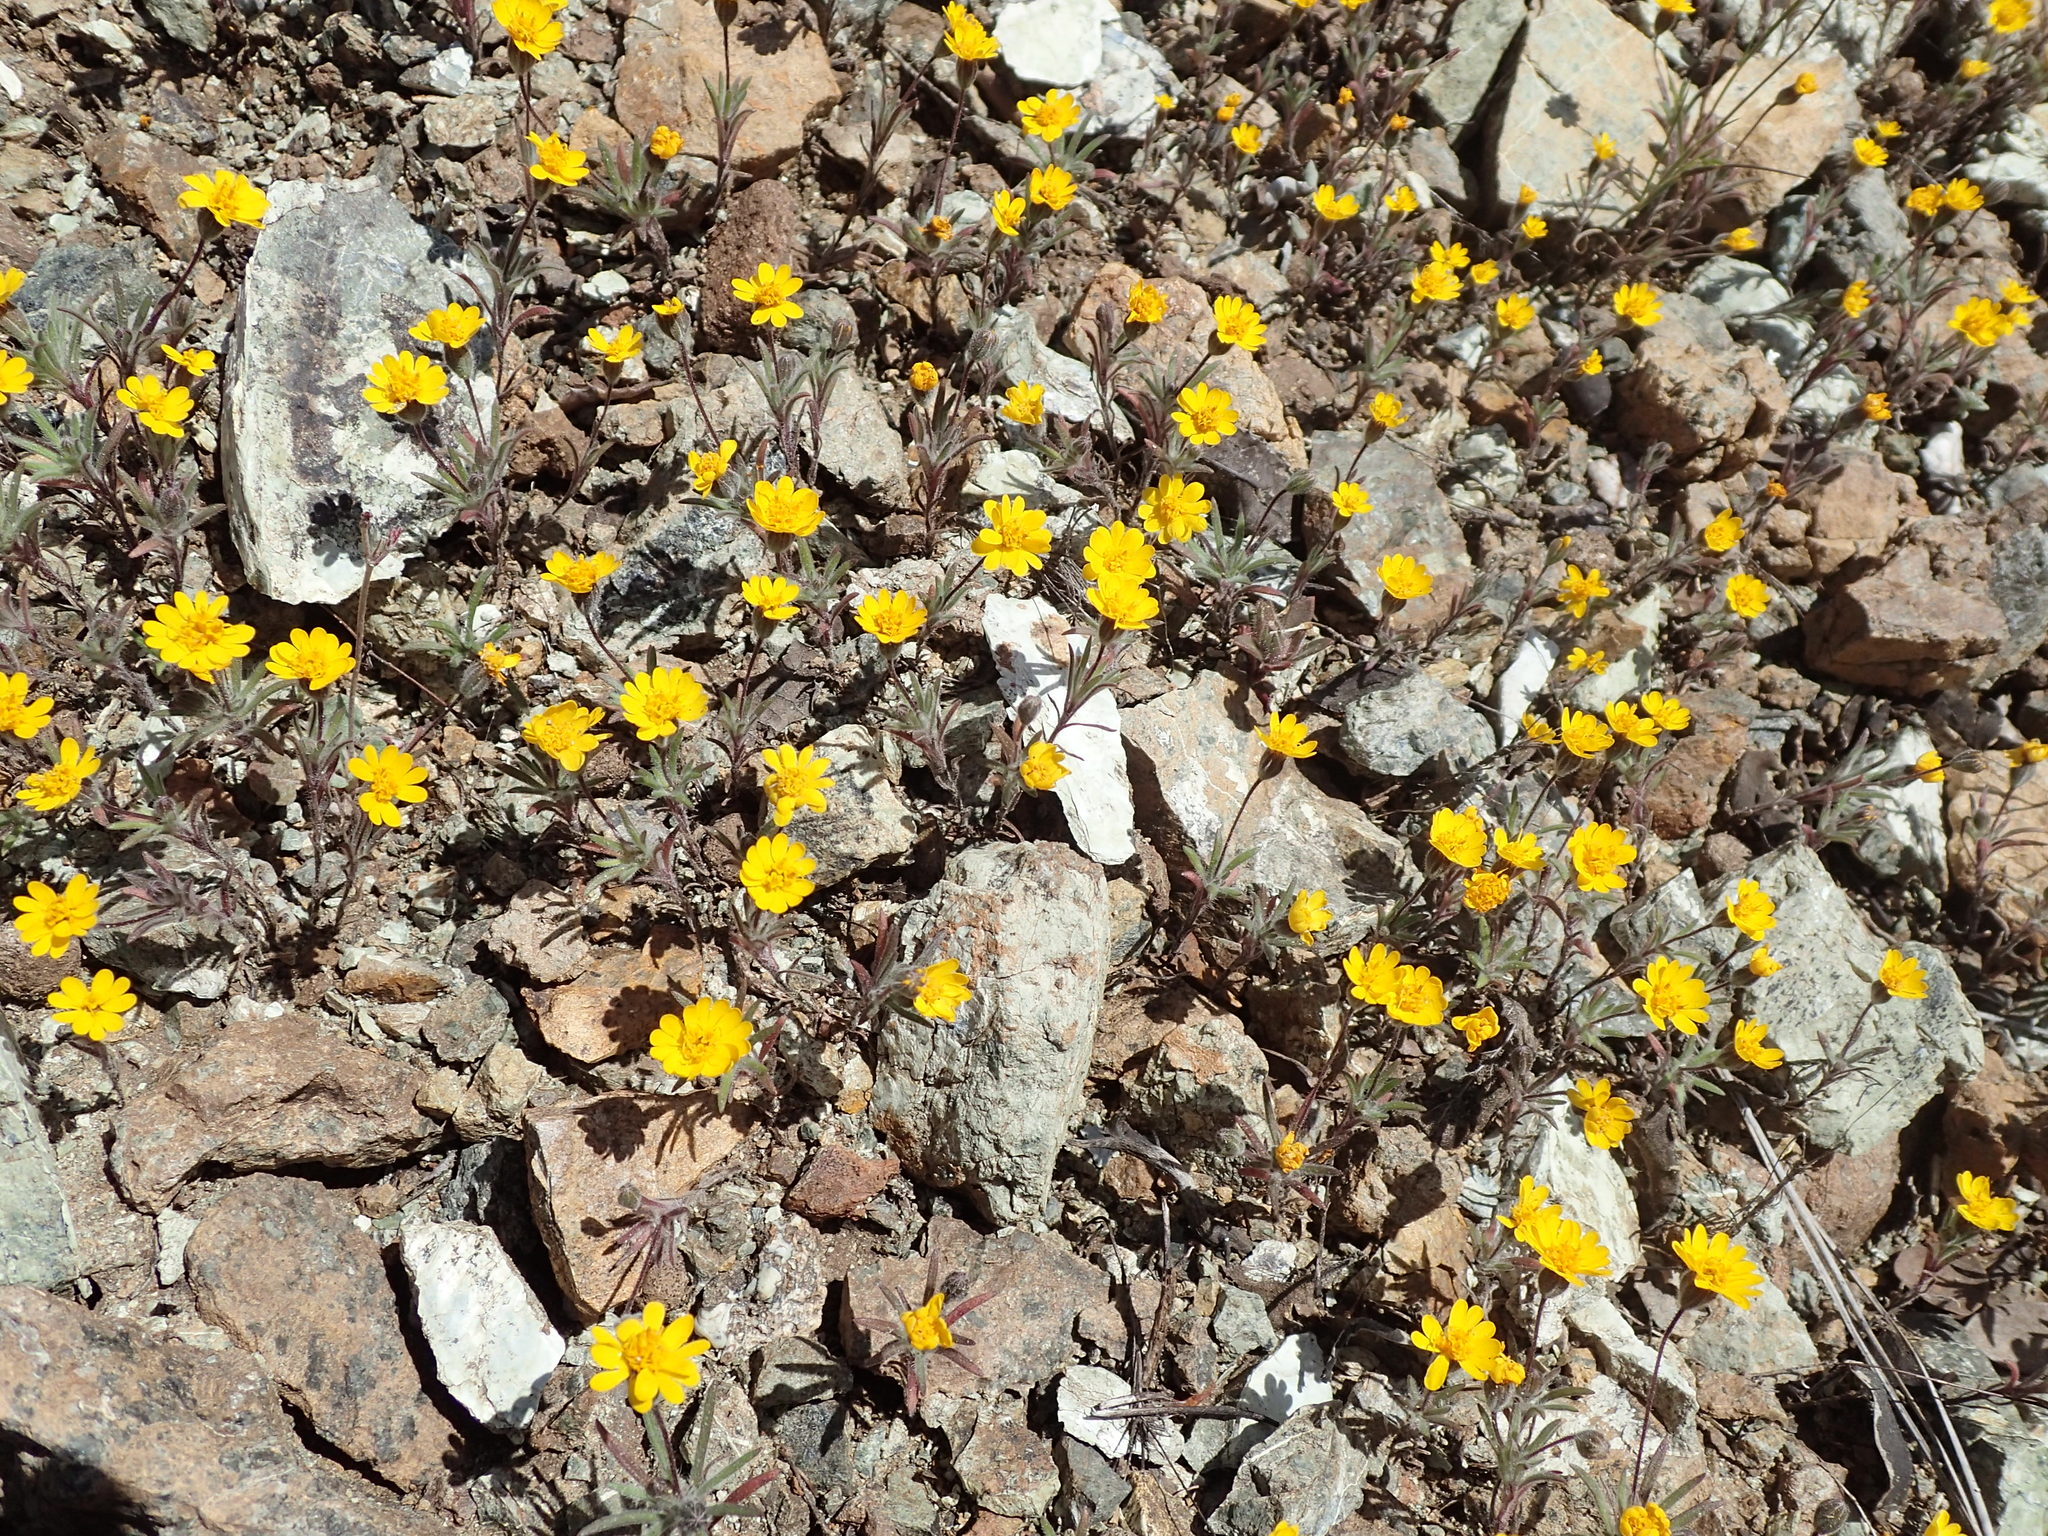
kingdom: Plantae
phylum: Tracheophyta
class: Magnoliopsida
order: Asterales
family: Asteraceae
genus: Harmonia
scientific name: Harmonia hallii
